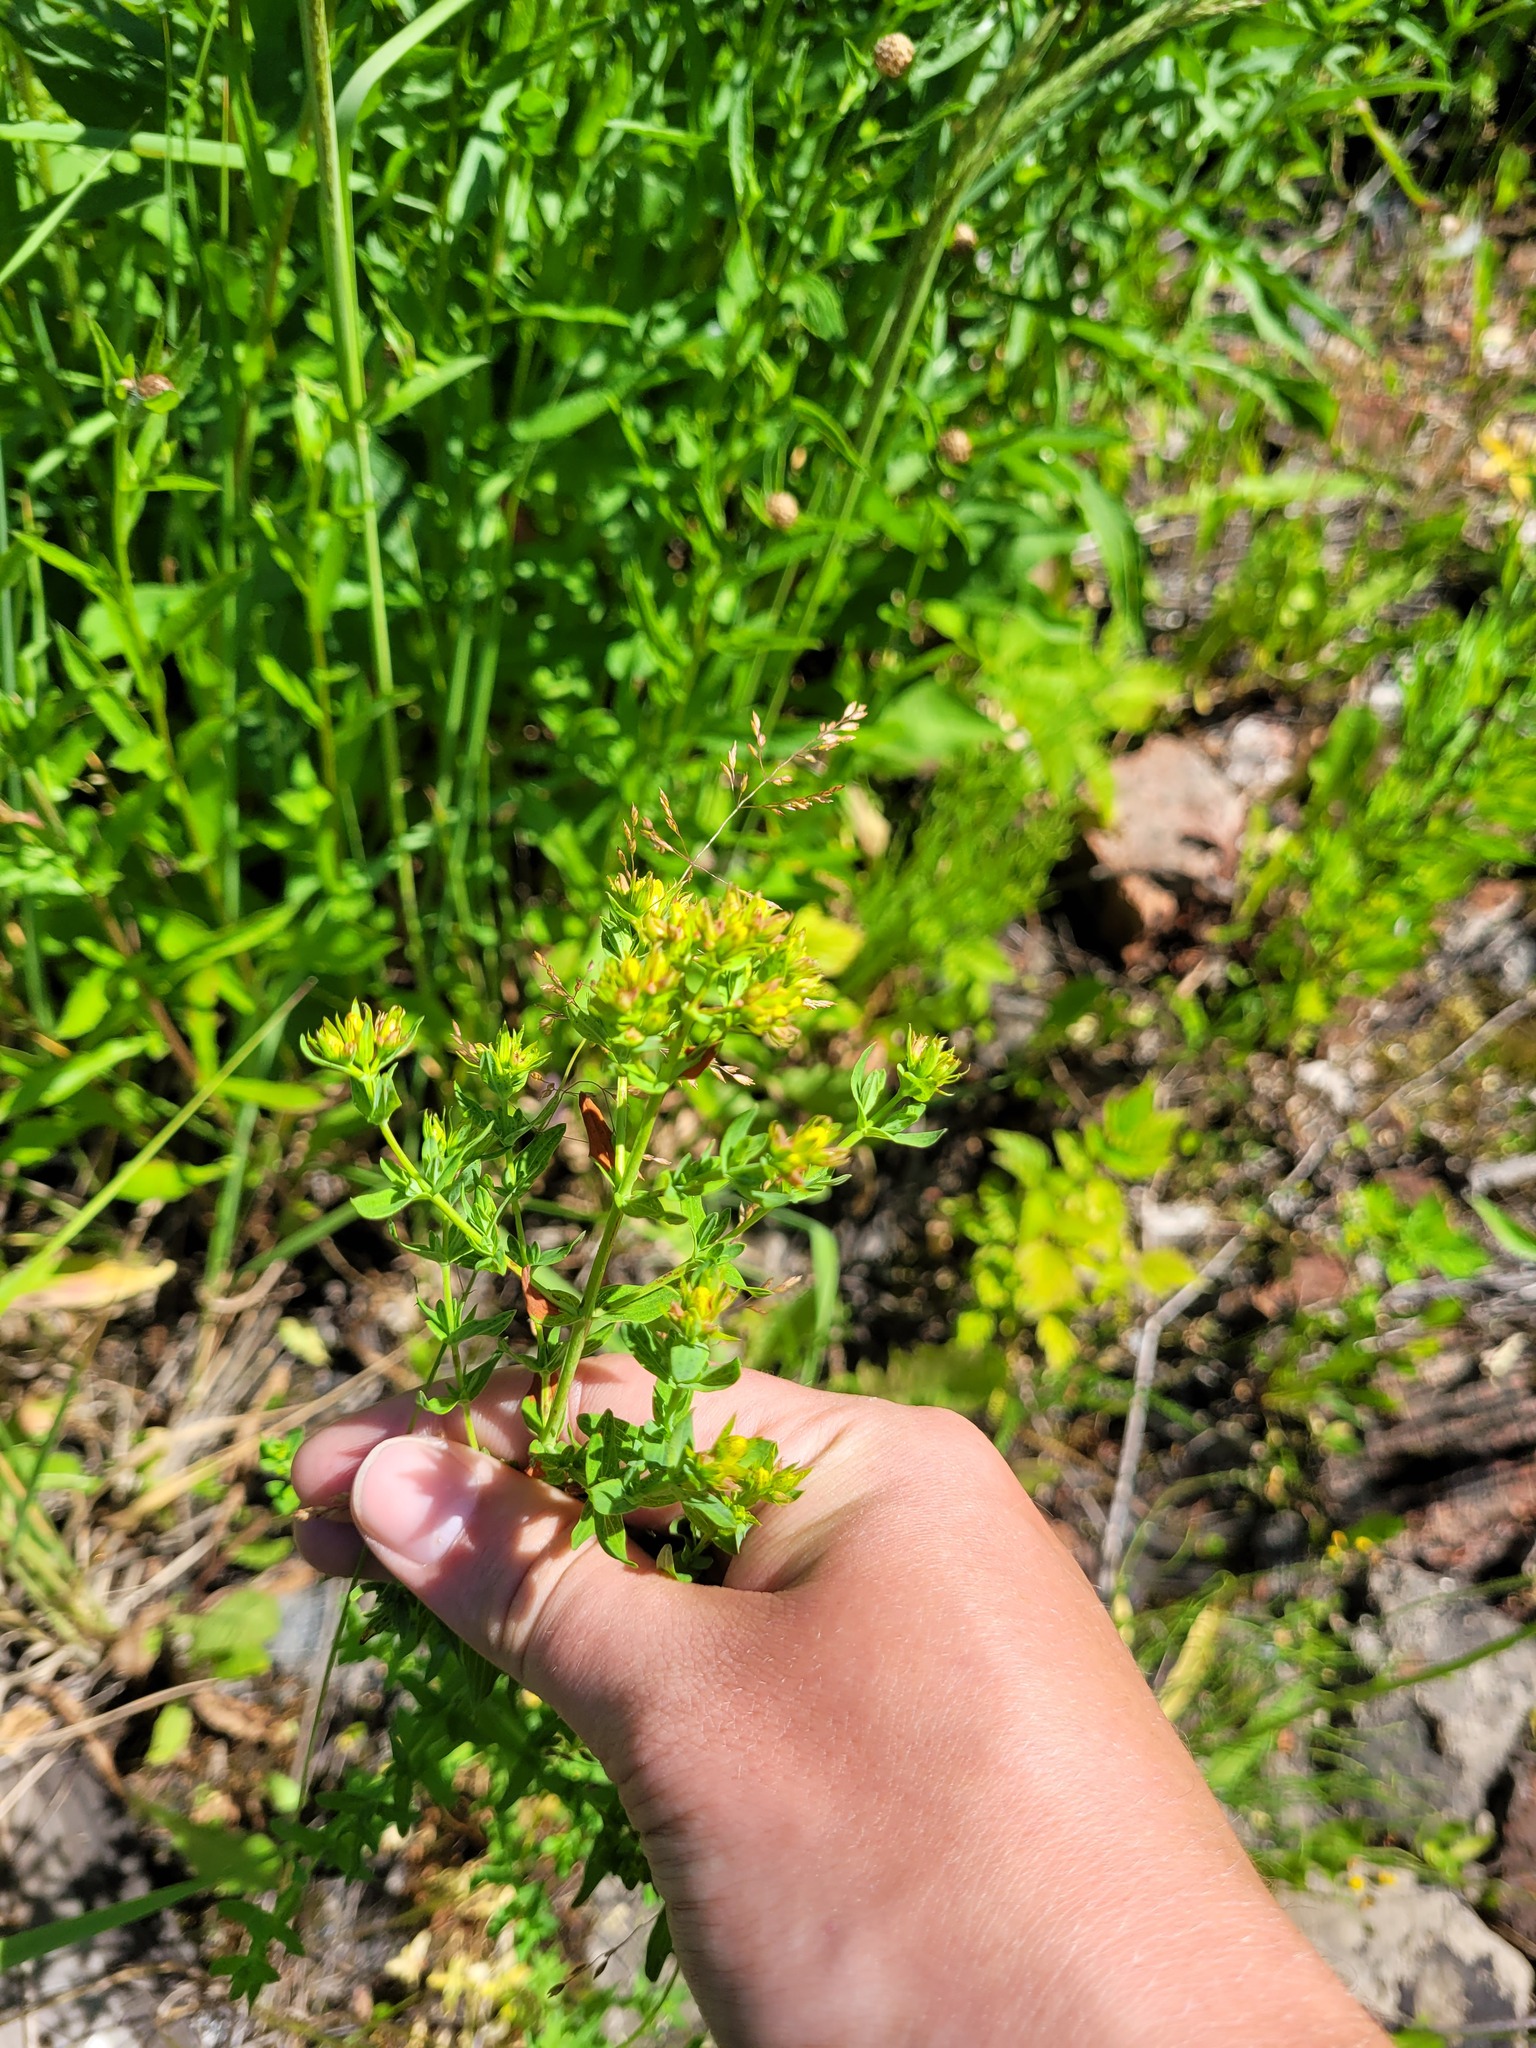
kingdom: Plantae
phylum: Tracheophyta
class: Magnoliopsida
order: Malpighiales
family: Hypericaceae
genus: Hypericum
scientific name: Hypericum perforatum
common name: Common st. johnswort
